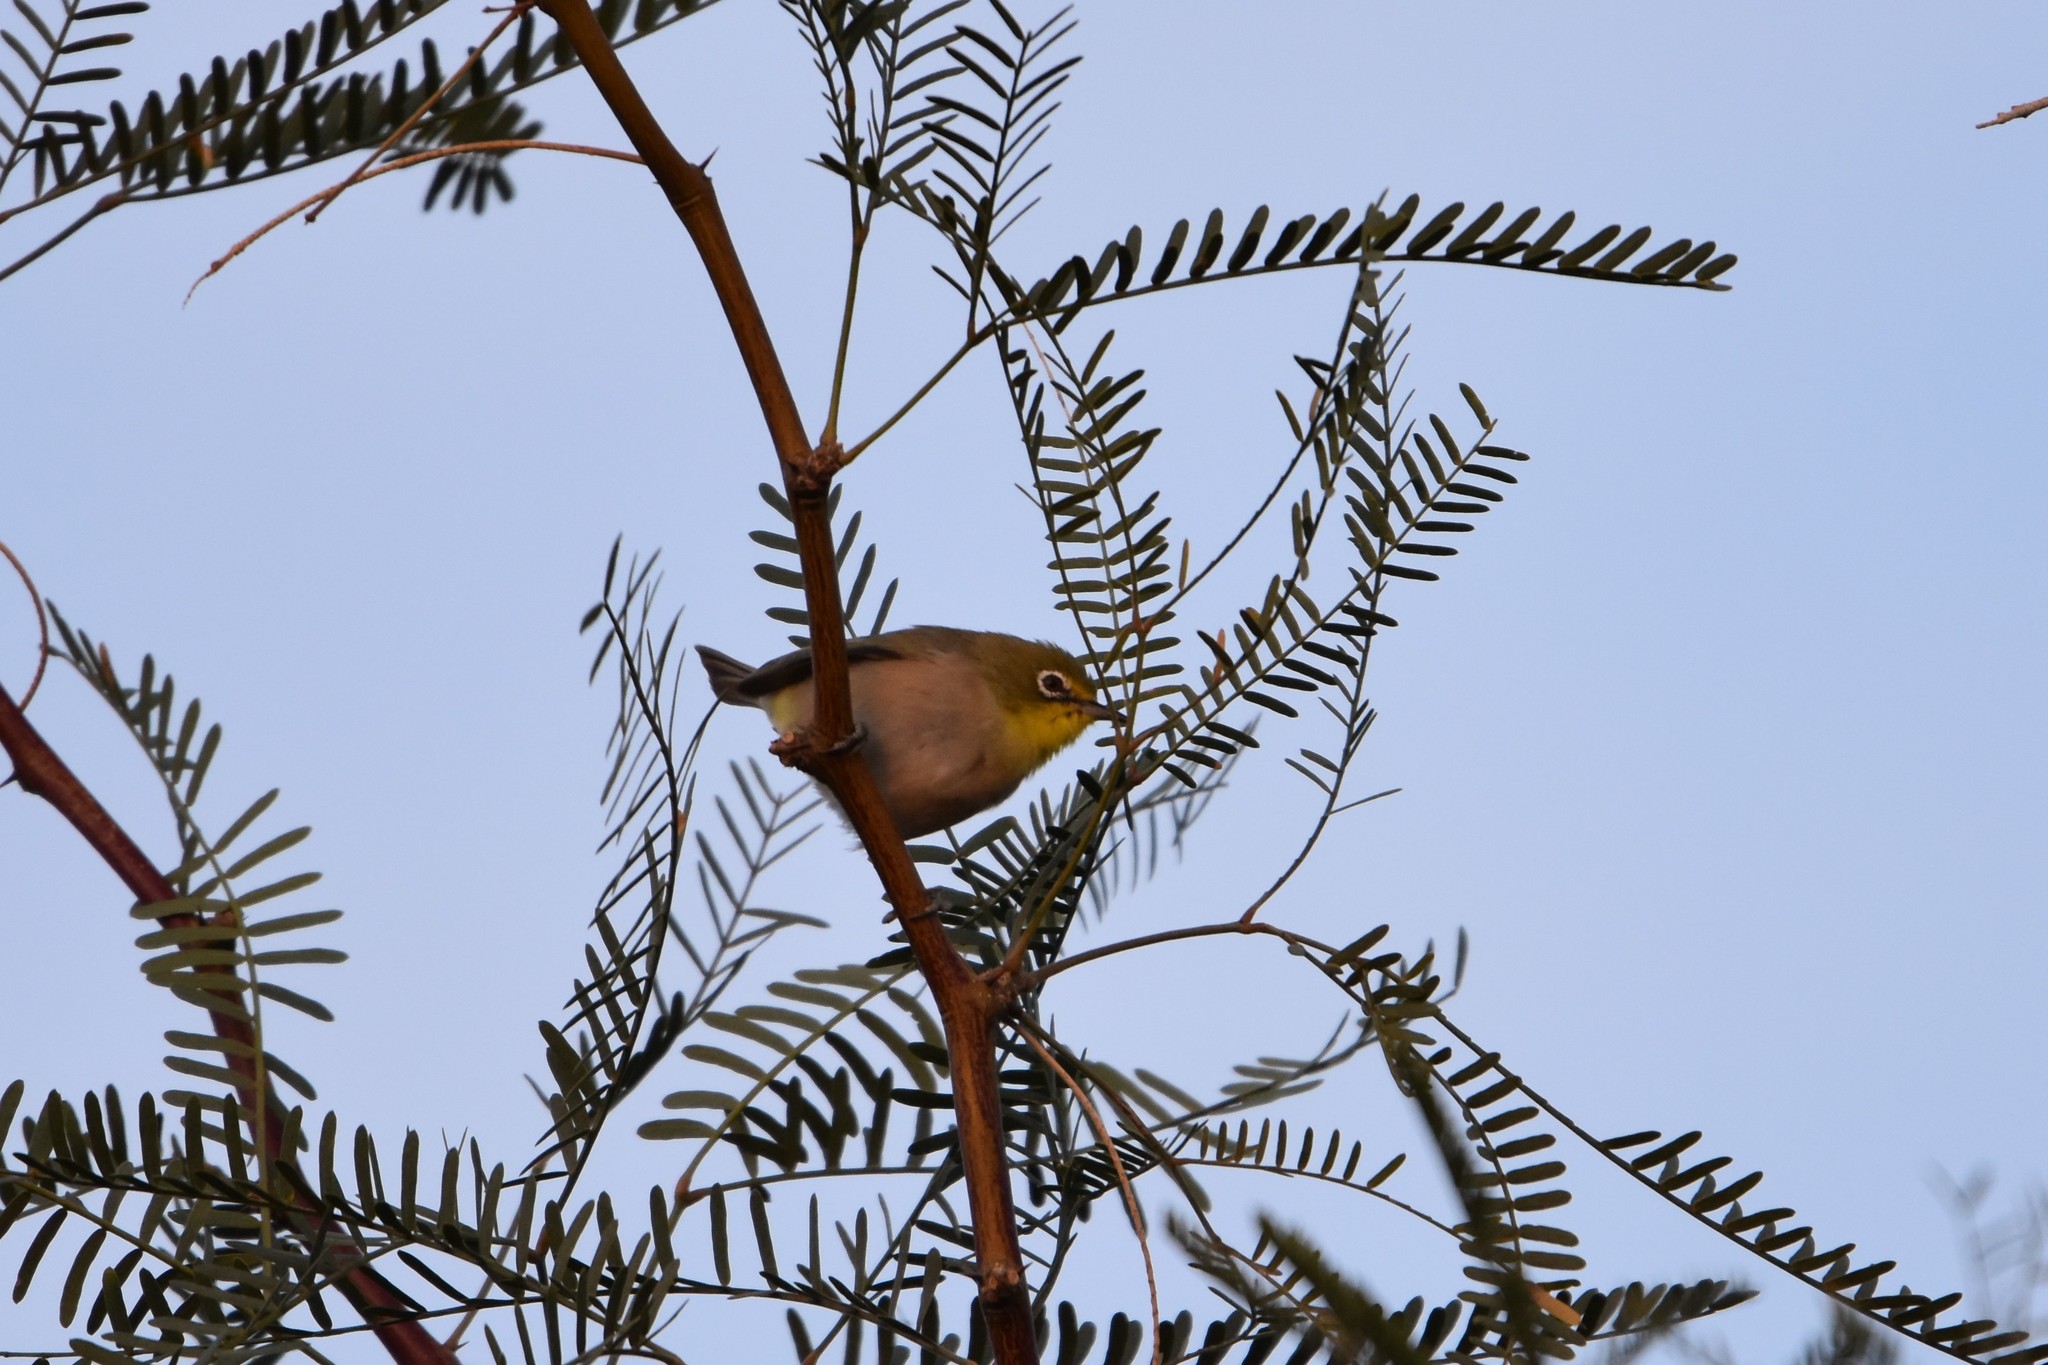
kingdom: Animalia
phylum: Chordata
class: Aves
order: Passeriformes
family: Zosteropidae
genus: Zosterops
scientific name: Zosterops pallidus
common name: Orange river white-eye
